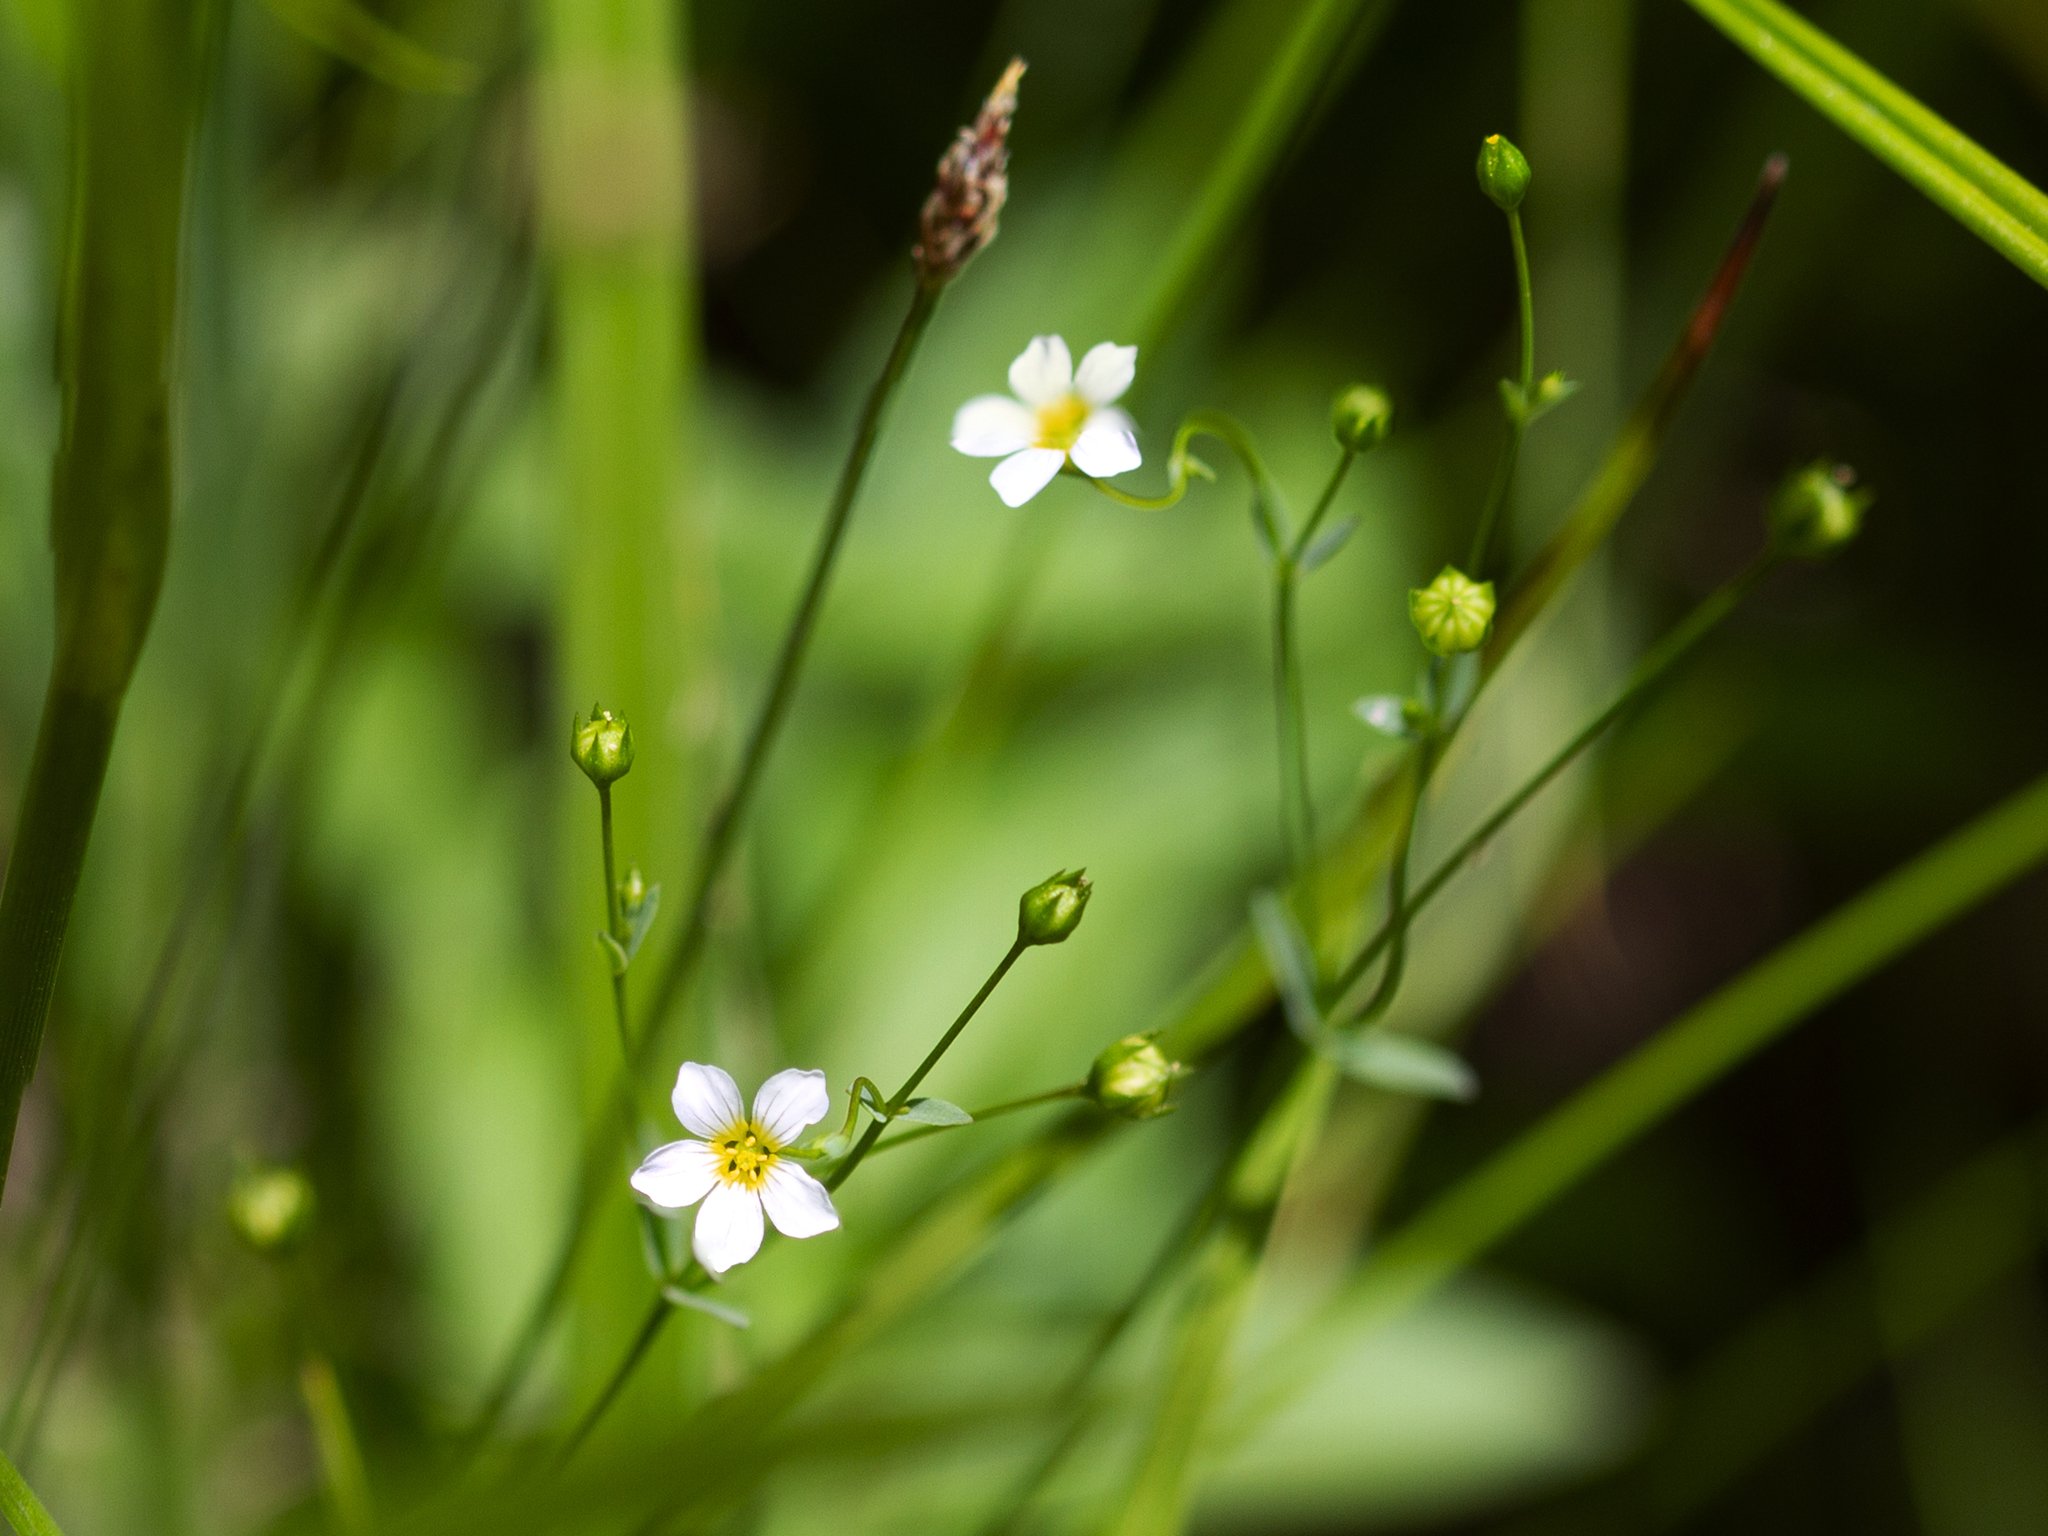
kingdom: Plantae
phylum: Tracheophyta
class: Magnoliopsida
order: Malpighiales
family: Linaceae
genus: Linum
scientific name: Linum catharticum
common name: Fairy flax
